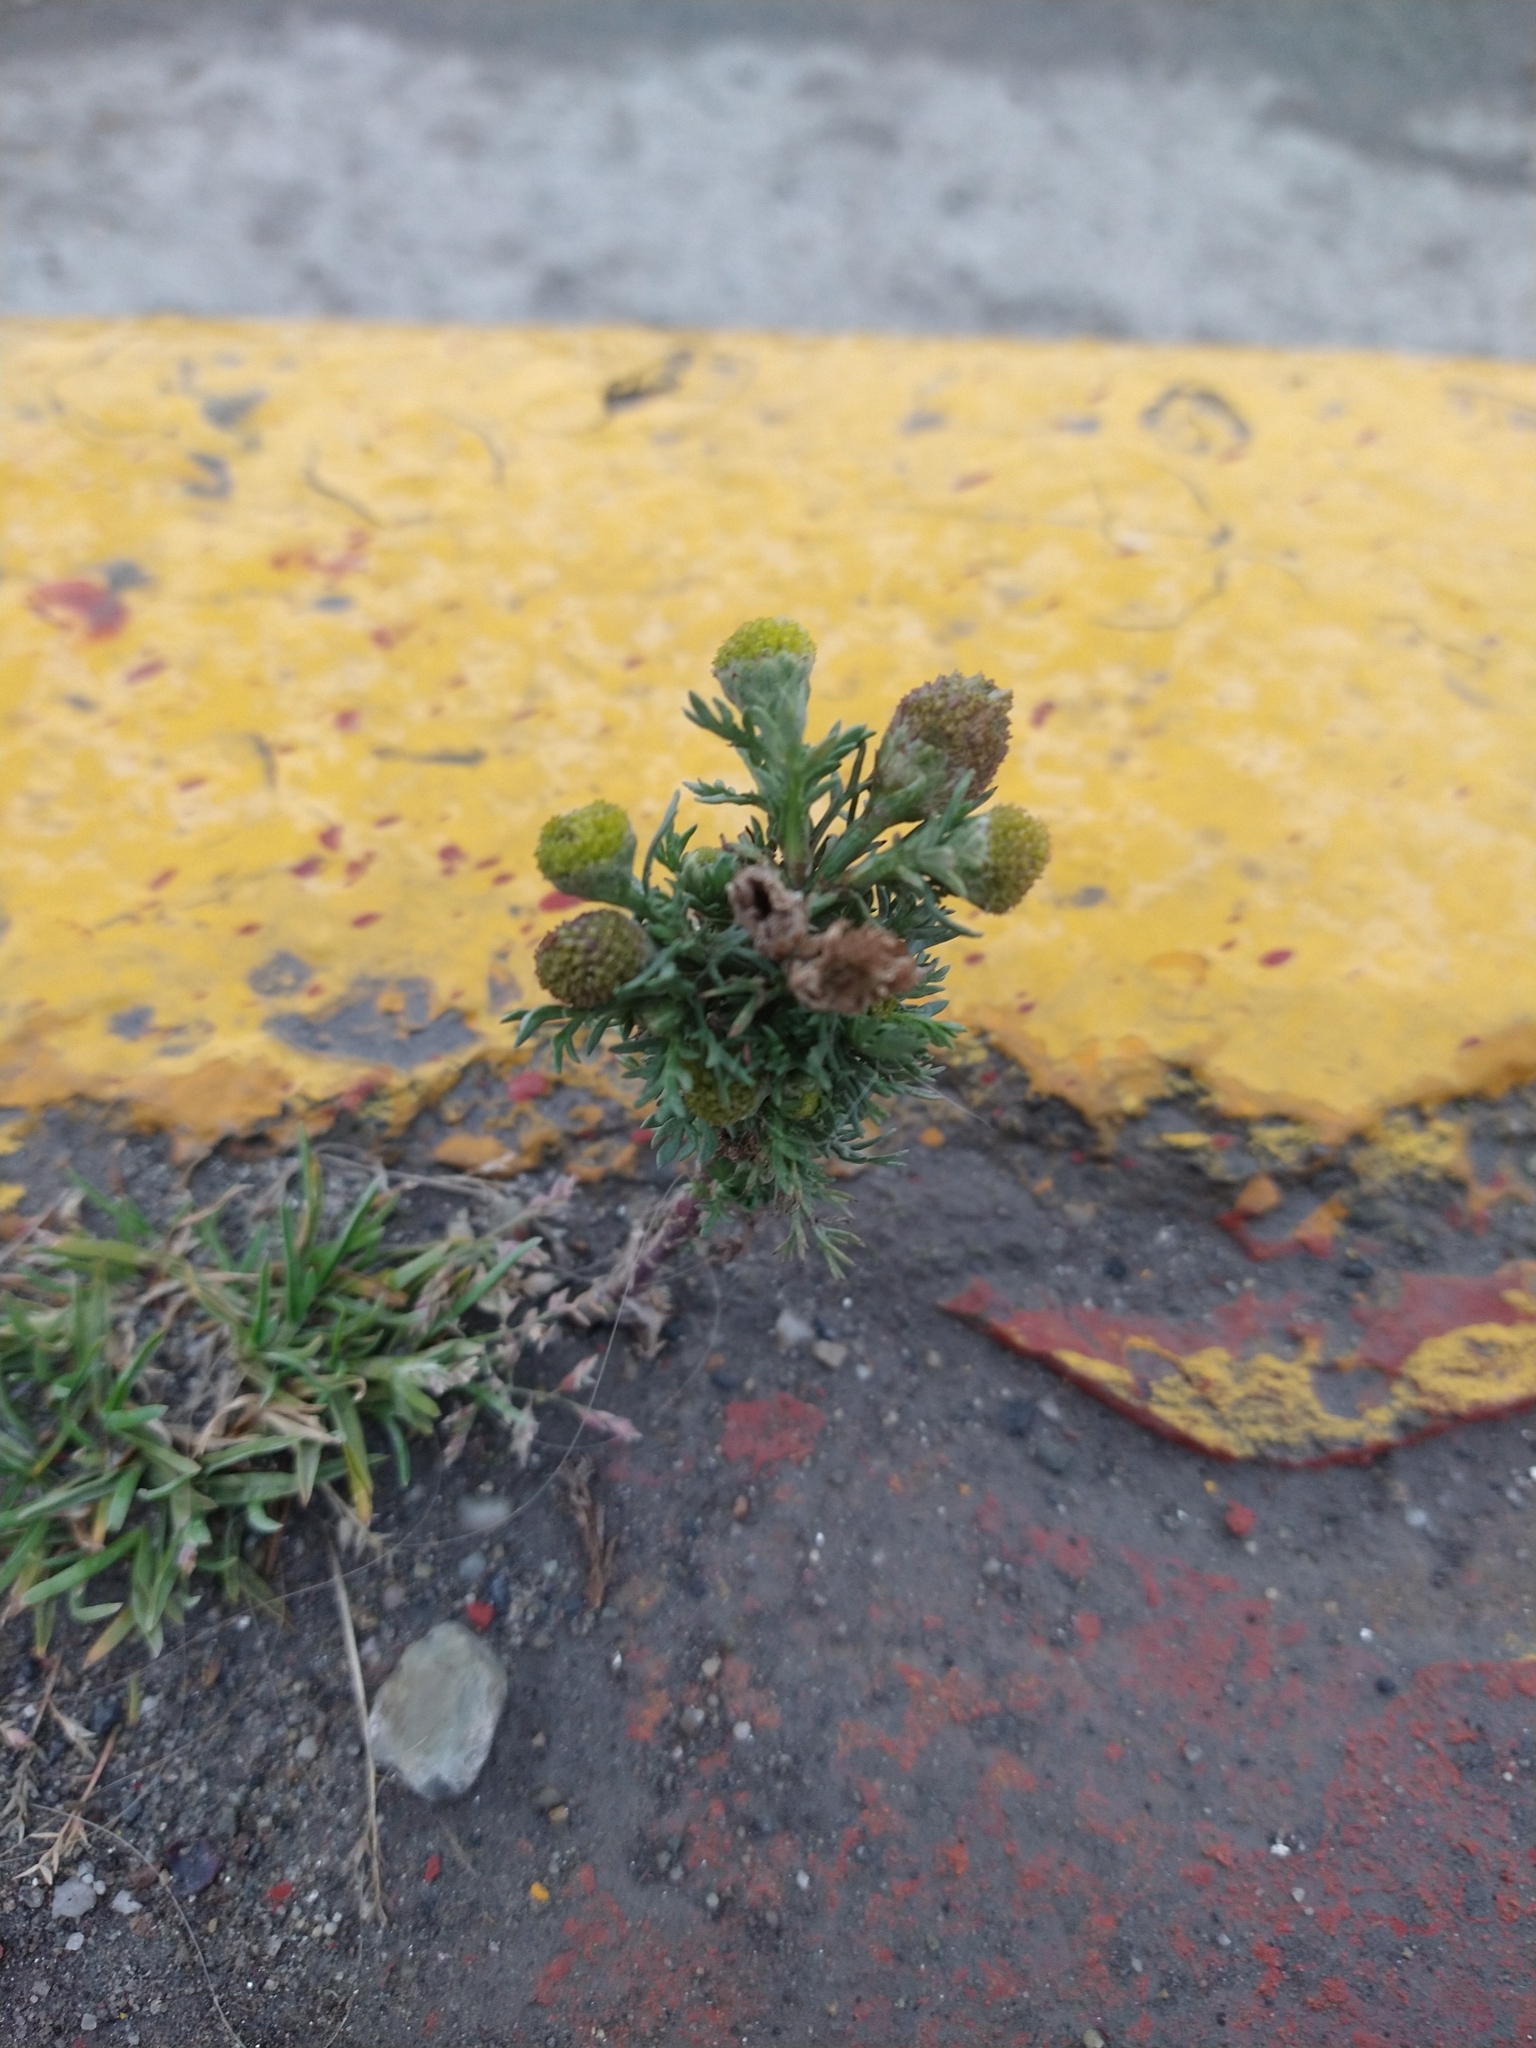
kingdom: Plantae
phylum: Tracheophyta
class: Magnoliopsida
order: Asterales
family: Asteraceae
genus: Matricaria
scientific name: Matricaria discoidea
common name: Disc mayweed
